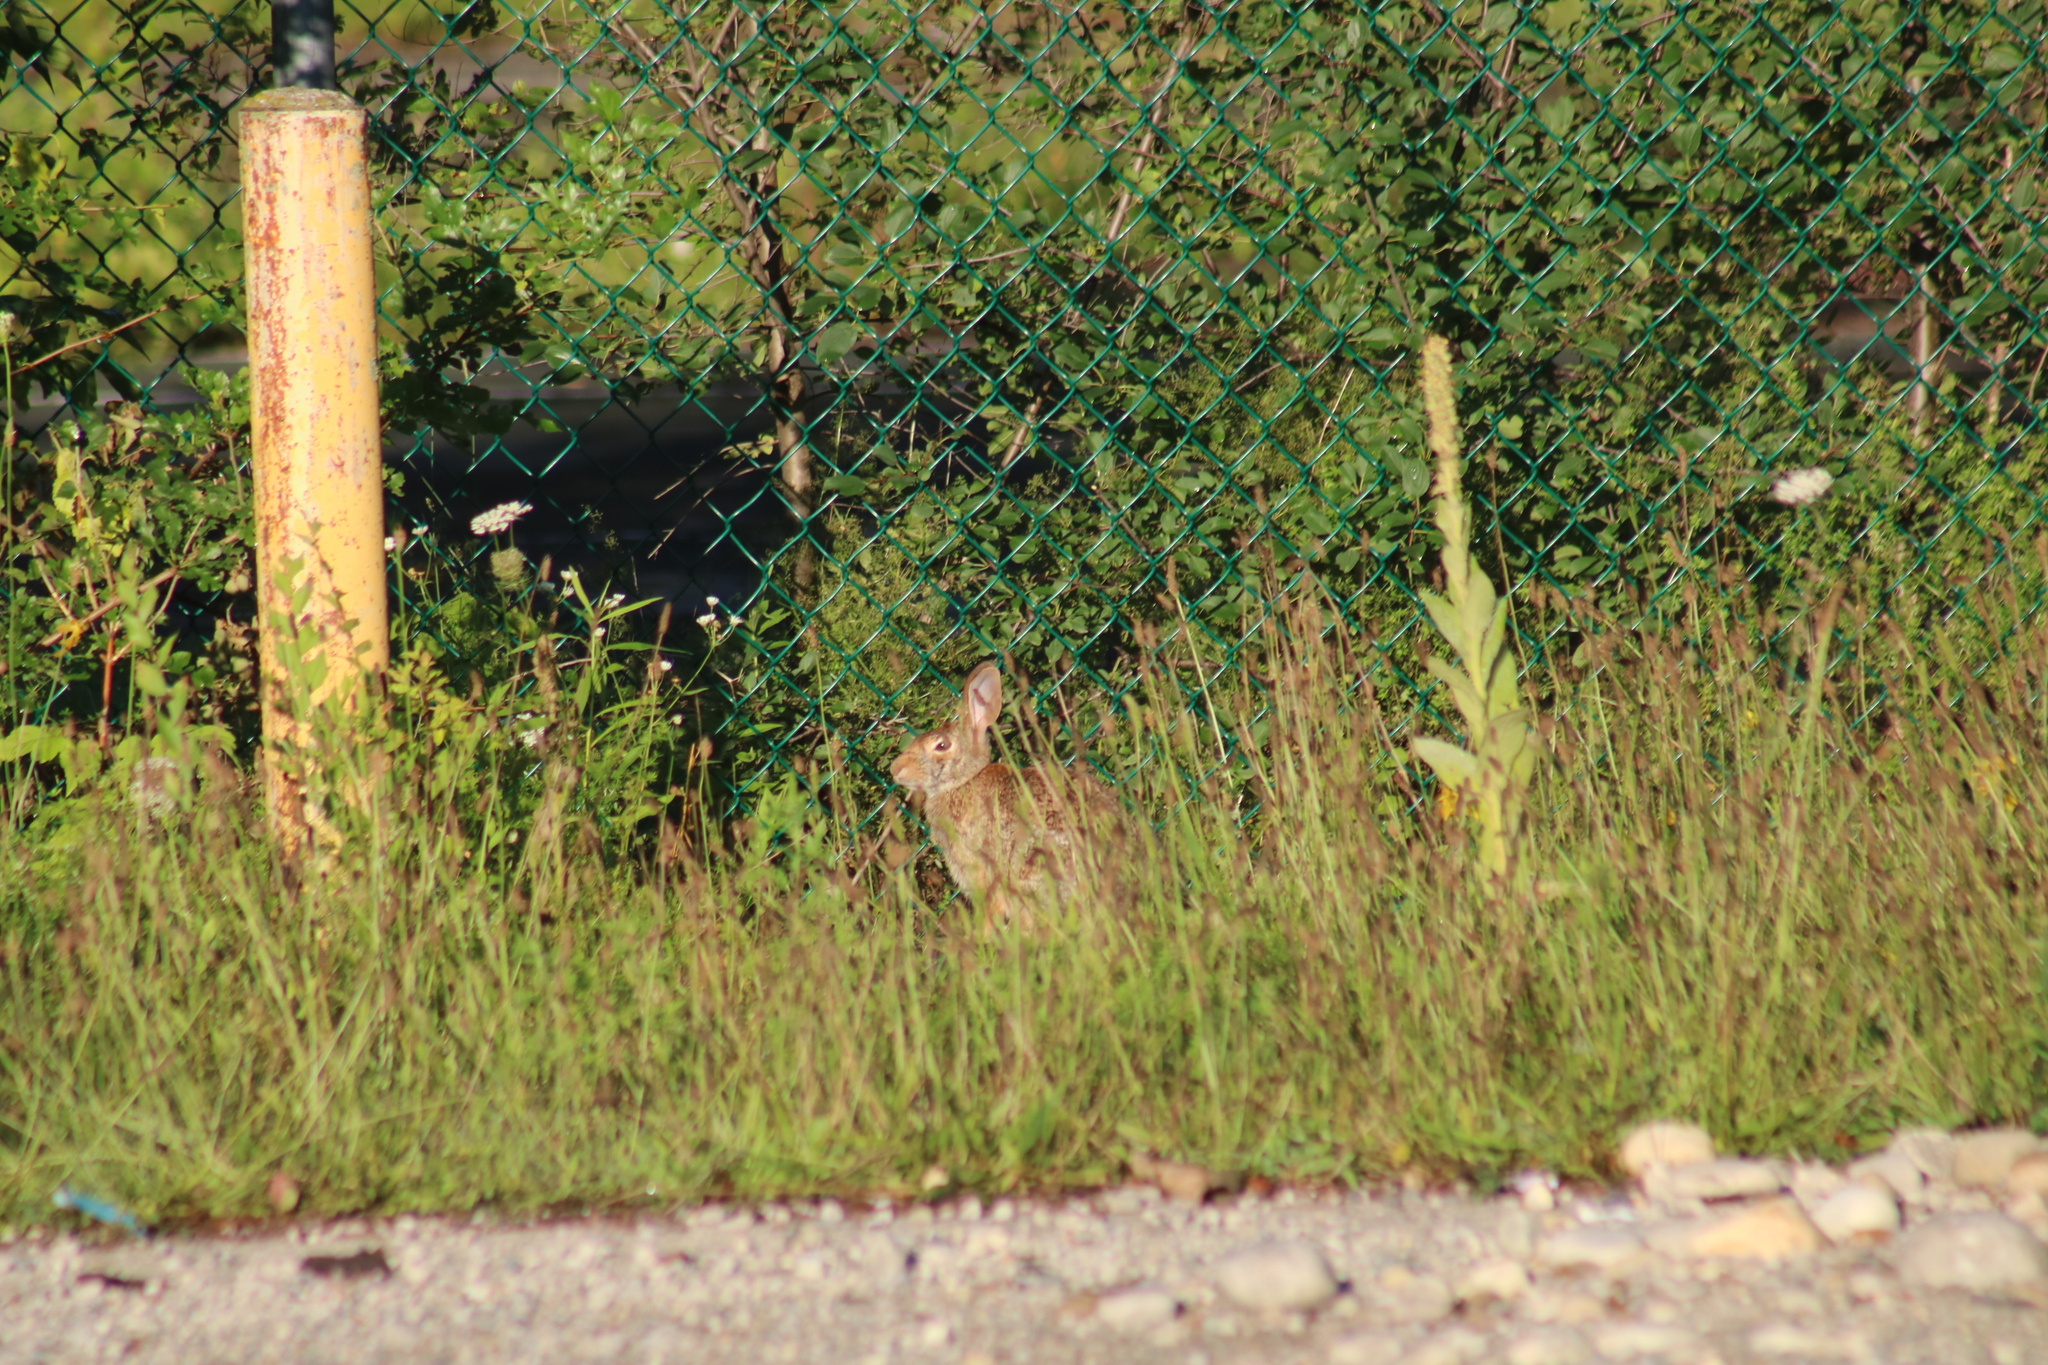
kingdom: Animalia
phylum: Chordata
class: Mammalia
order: Lagomorpha
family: Leporidae
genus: Sylvilagus
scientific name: Sylvilagus floridanus
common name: Eastern cottontail
